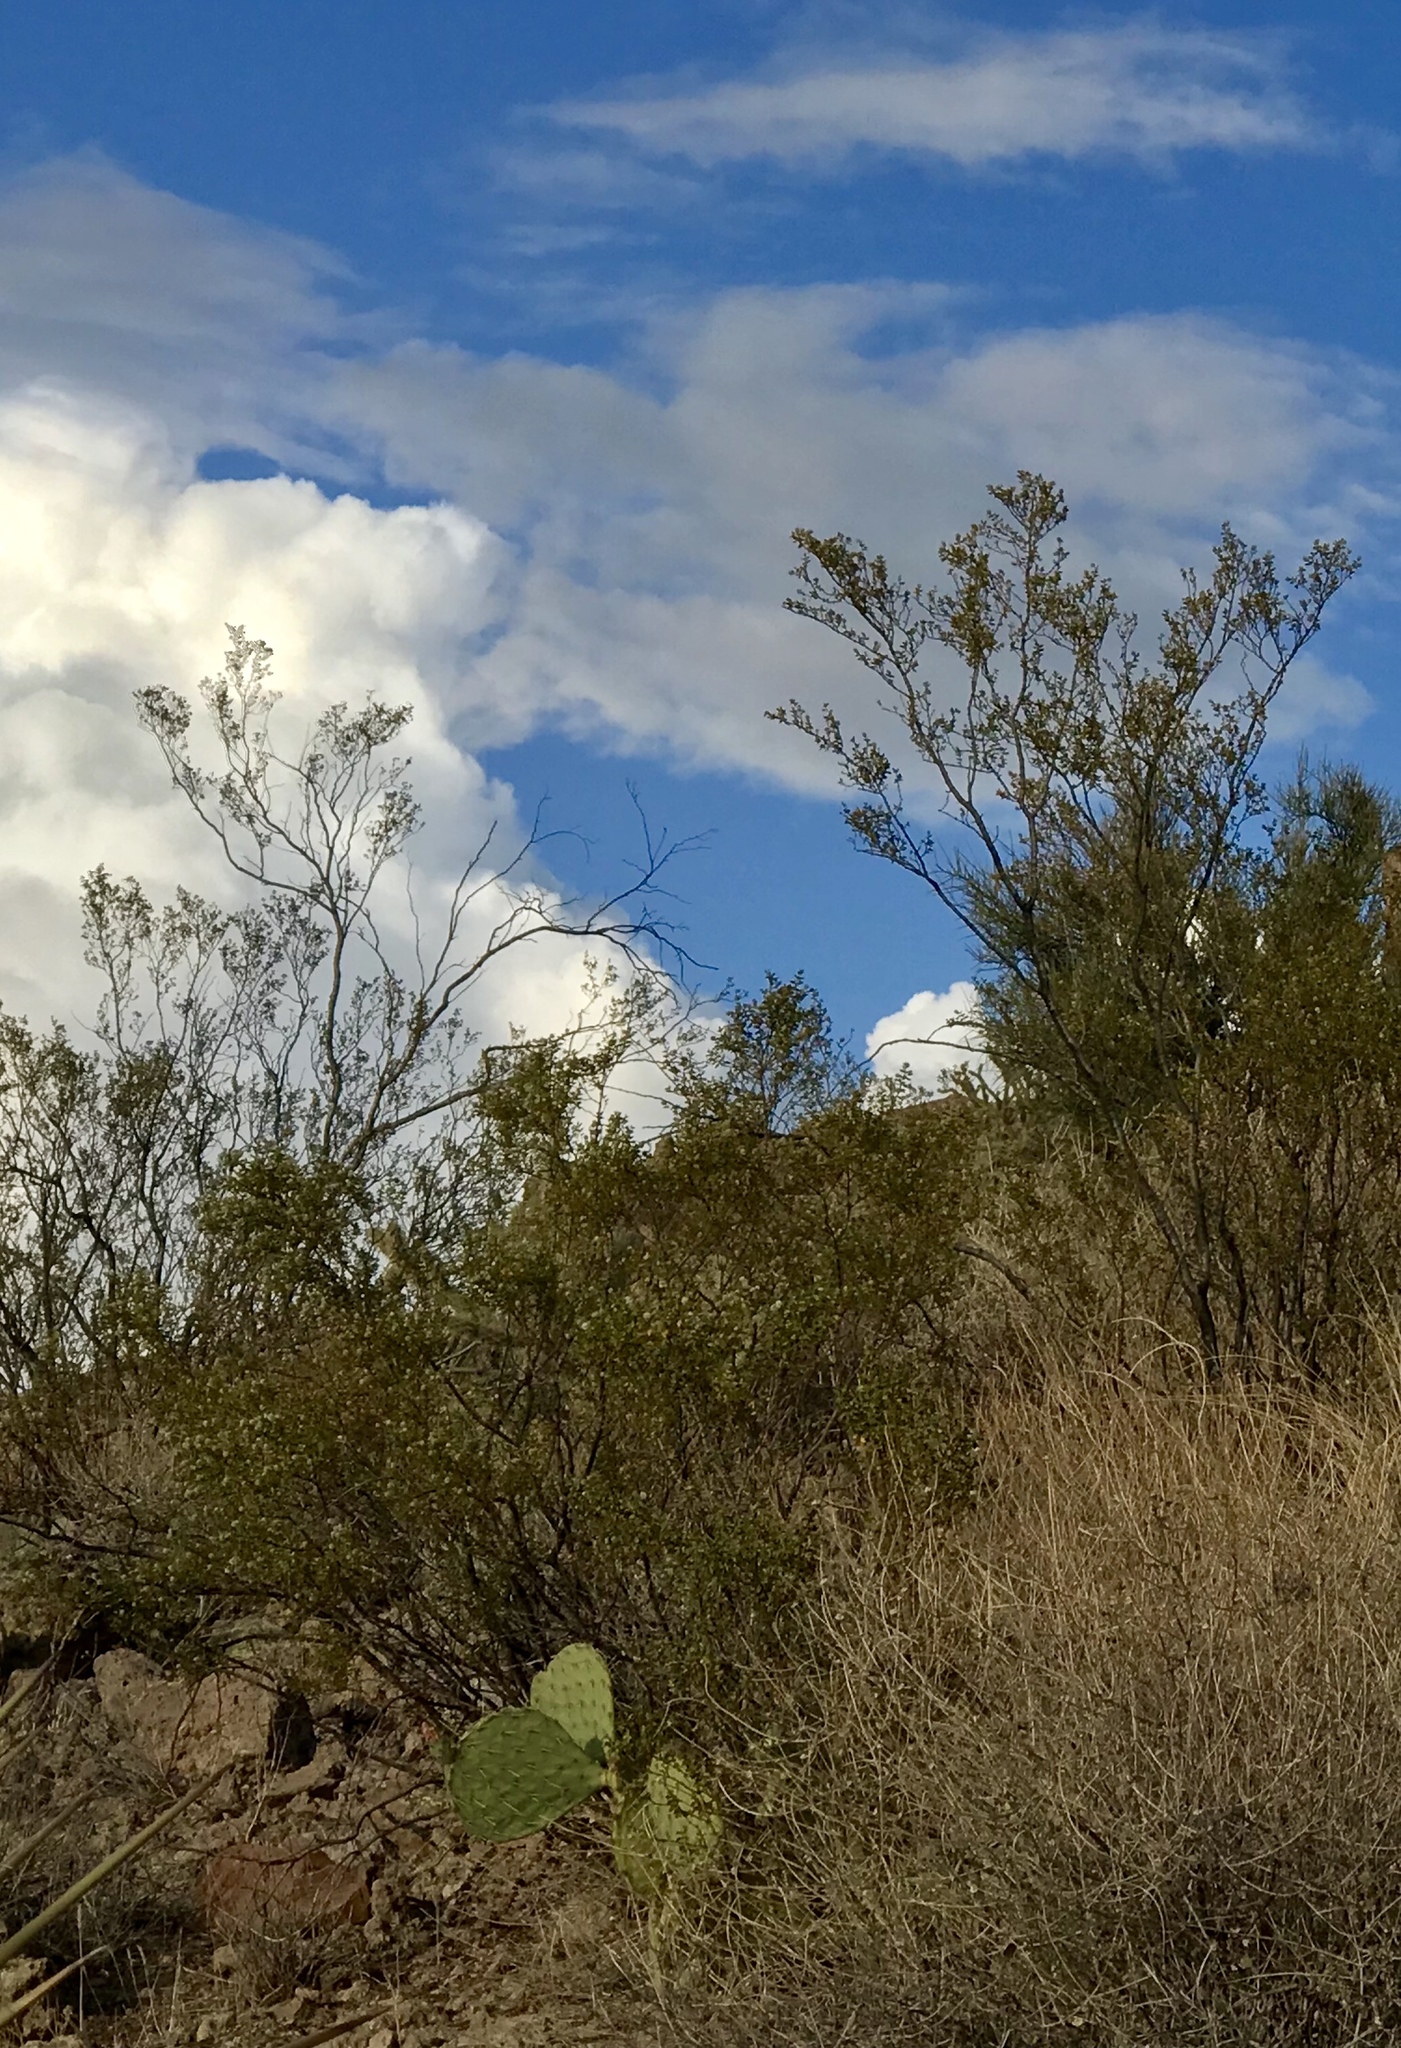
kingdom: Plantae
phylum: Tracheophyta
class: Magnoliopsida
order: Zygophyllales
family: Zygophyllaceae
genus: Larrea
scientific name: Larrea tridentata
